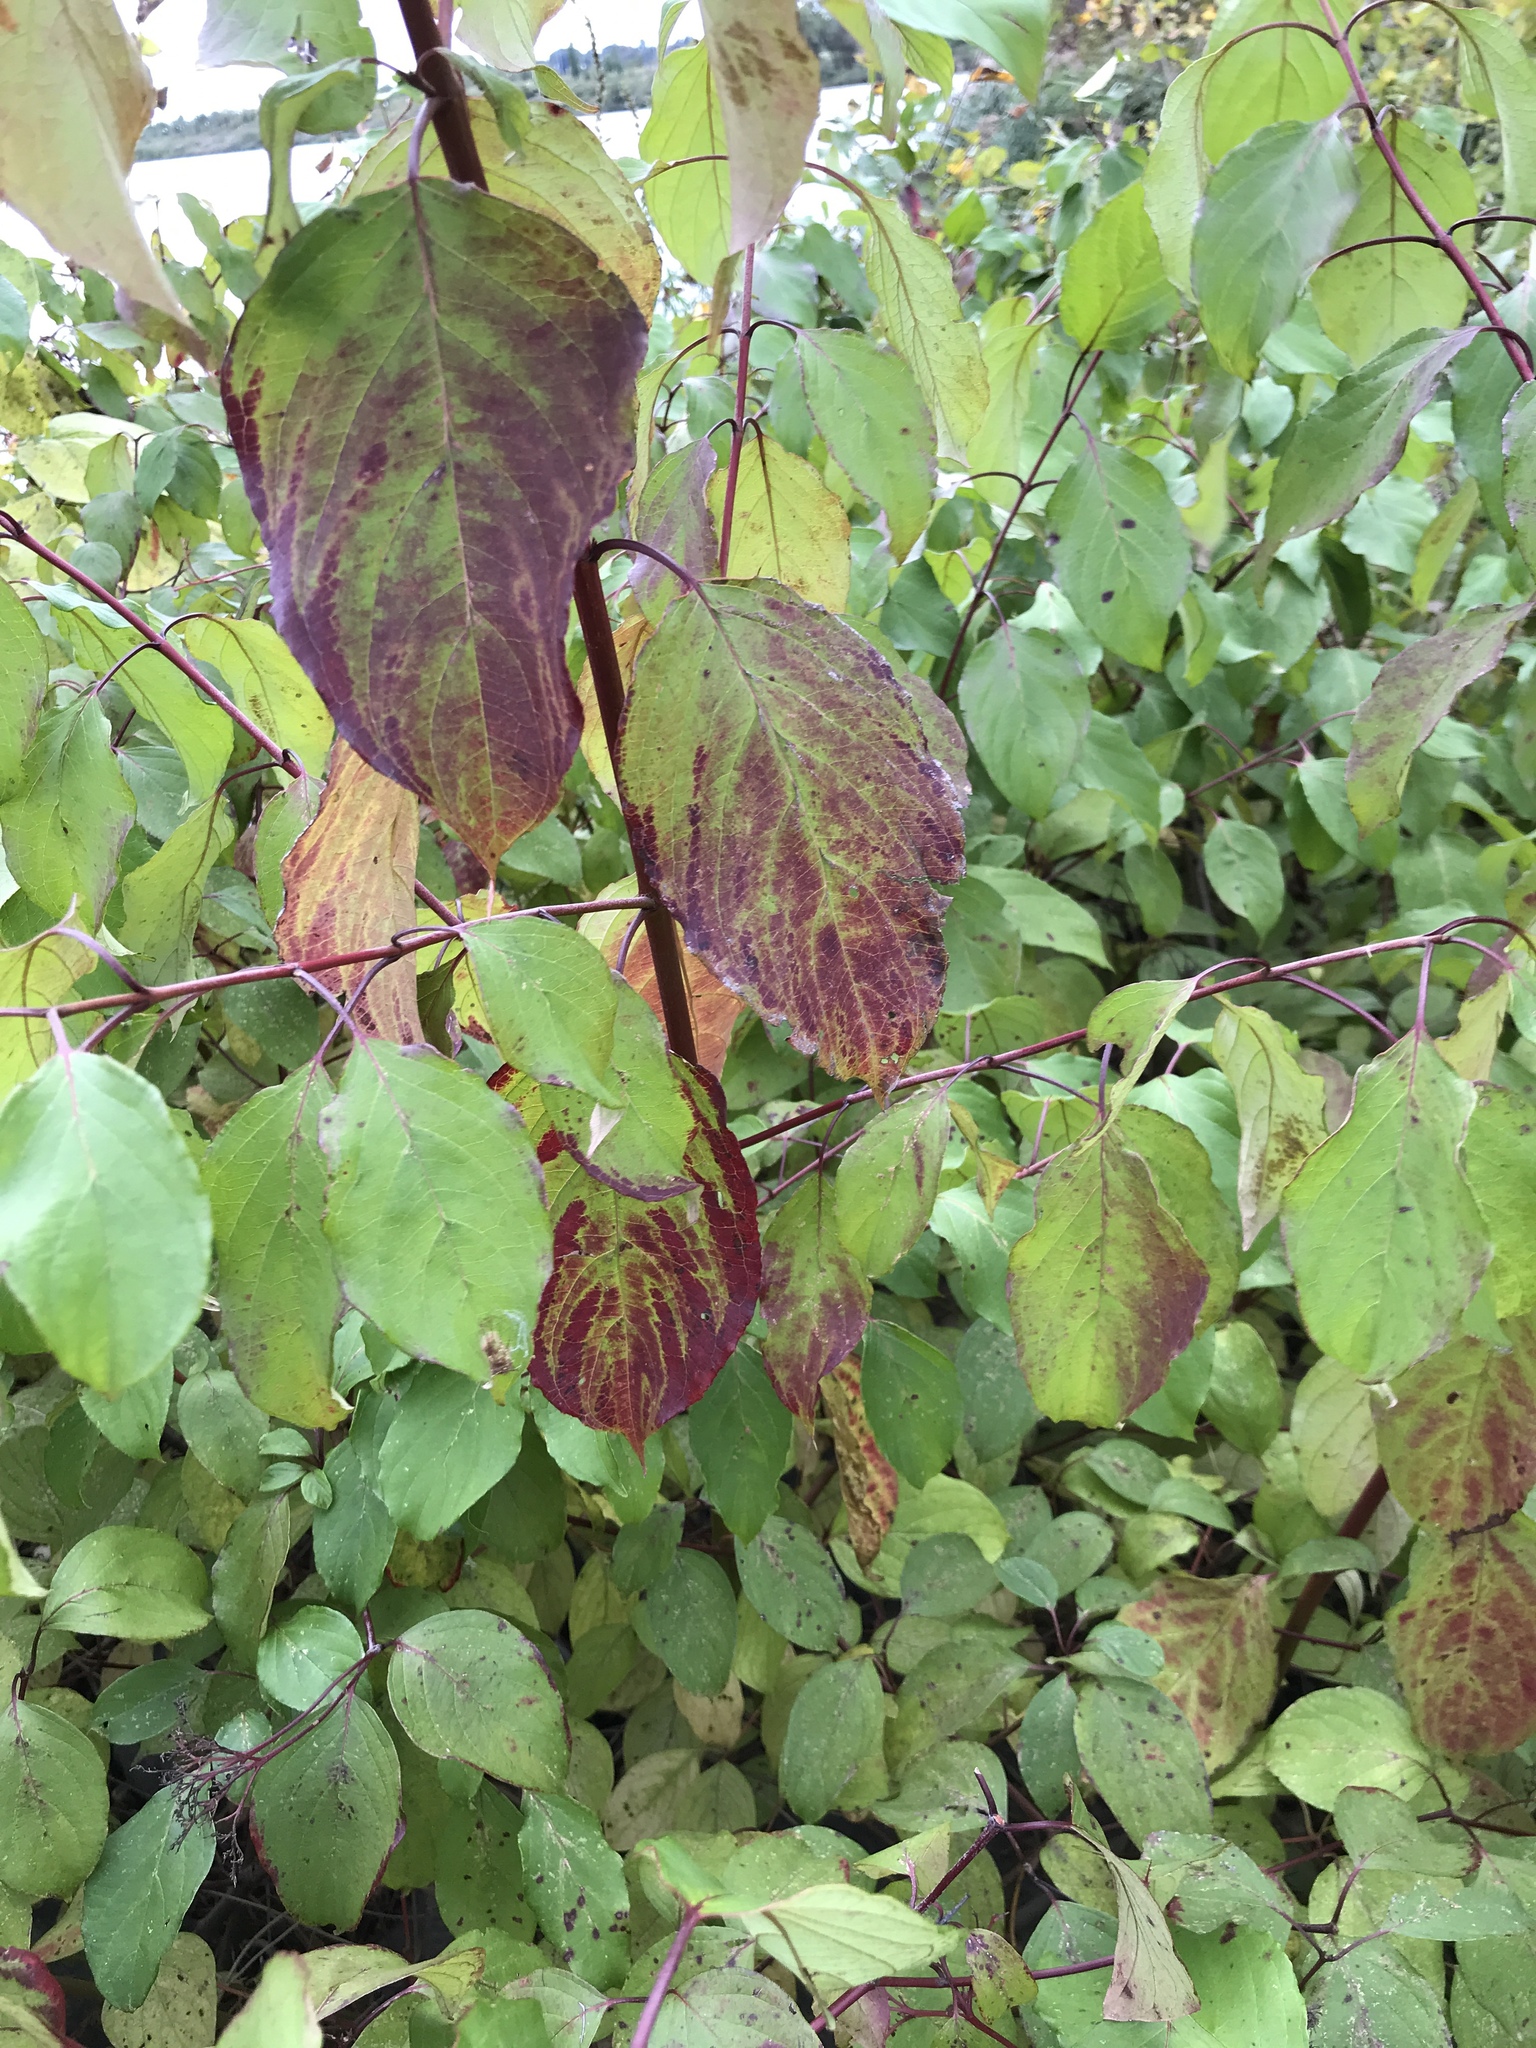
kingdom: Plantae
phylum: Tracheophyta
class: Magnoliopsida
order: Cornales
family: Cornaceae
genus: Cornus
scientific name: Cornus amomum
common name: Silky dogwood
